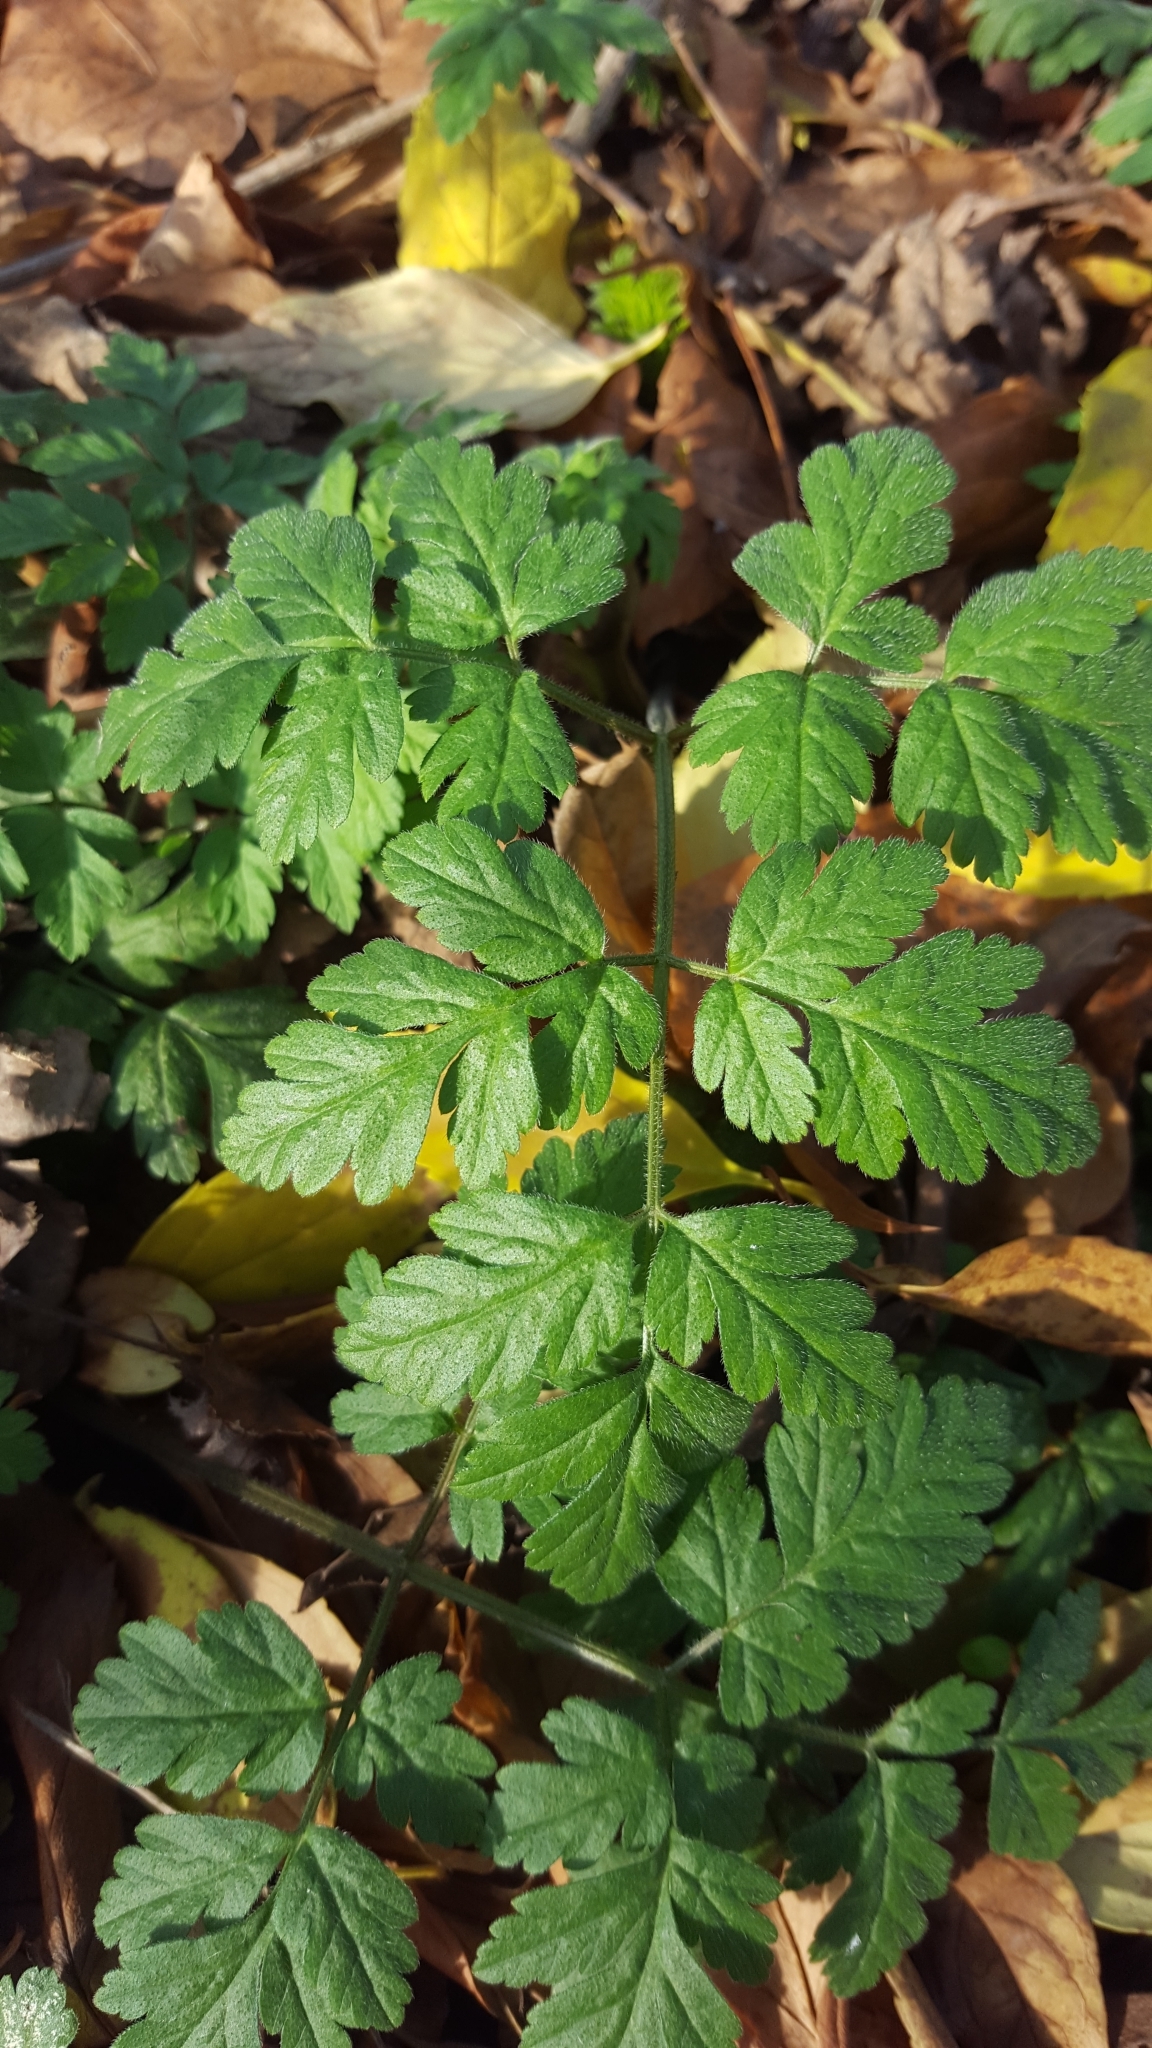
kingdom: Plantae
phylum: Tracheophyta
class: Magnoliopsida
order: Apiales
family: Apiaceae
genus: Chaerophyllum
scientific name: Chaerophyllum temulum
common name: Rough chervil
